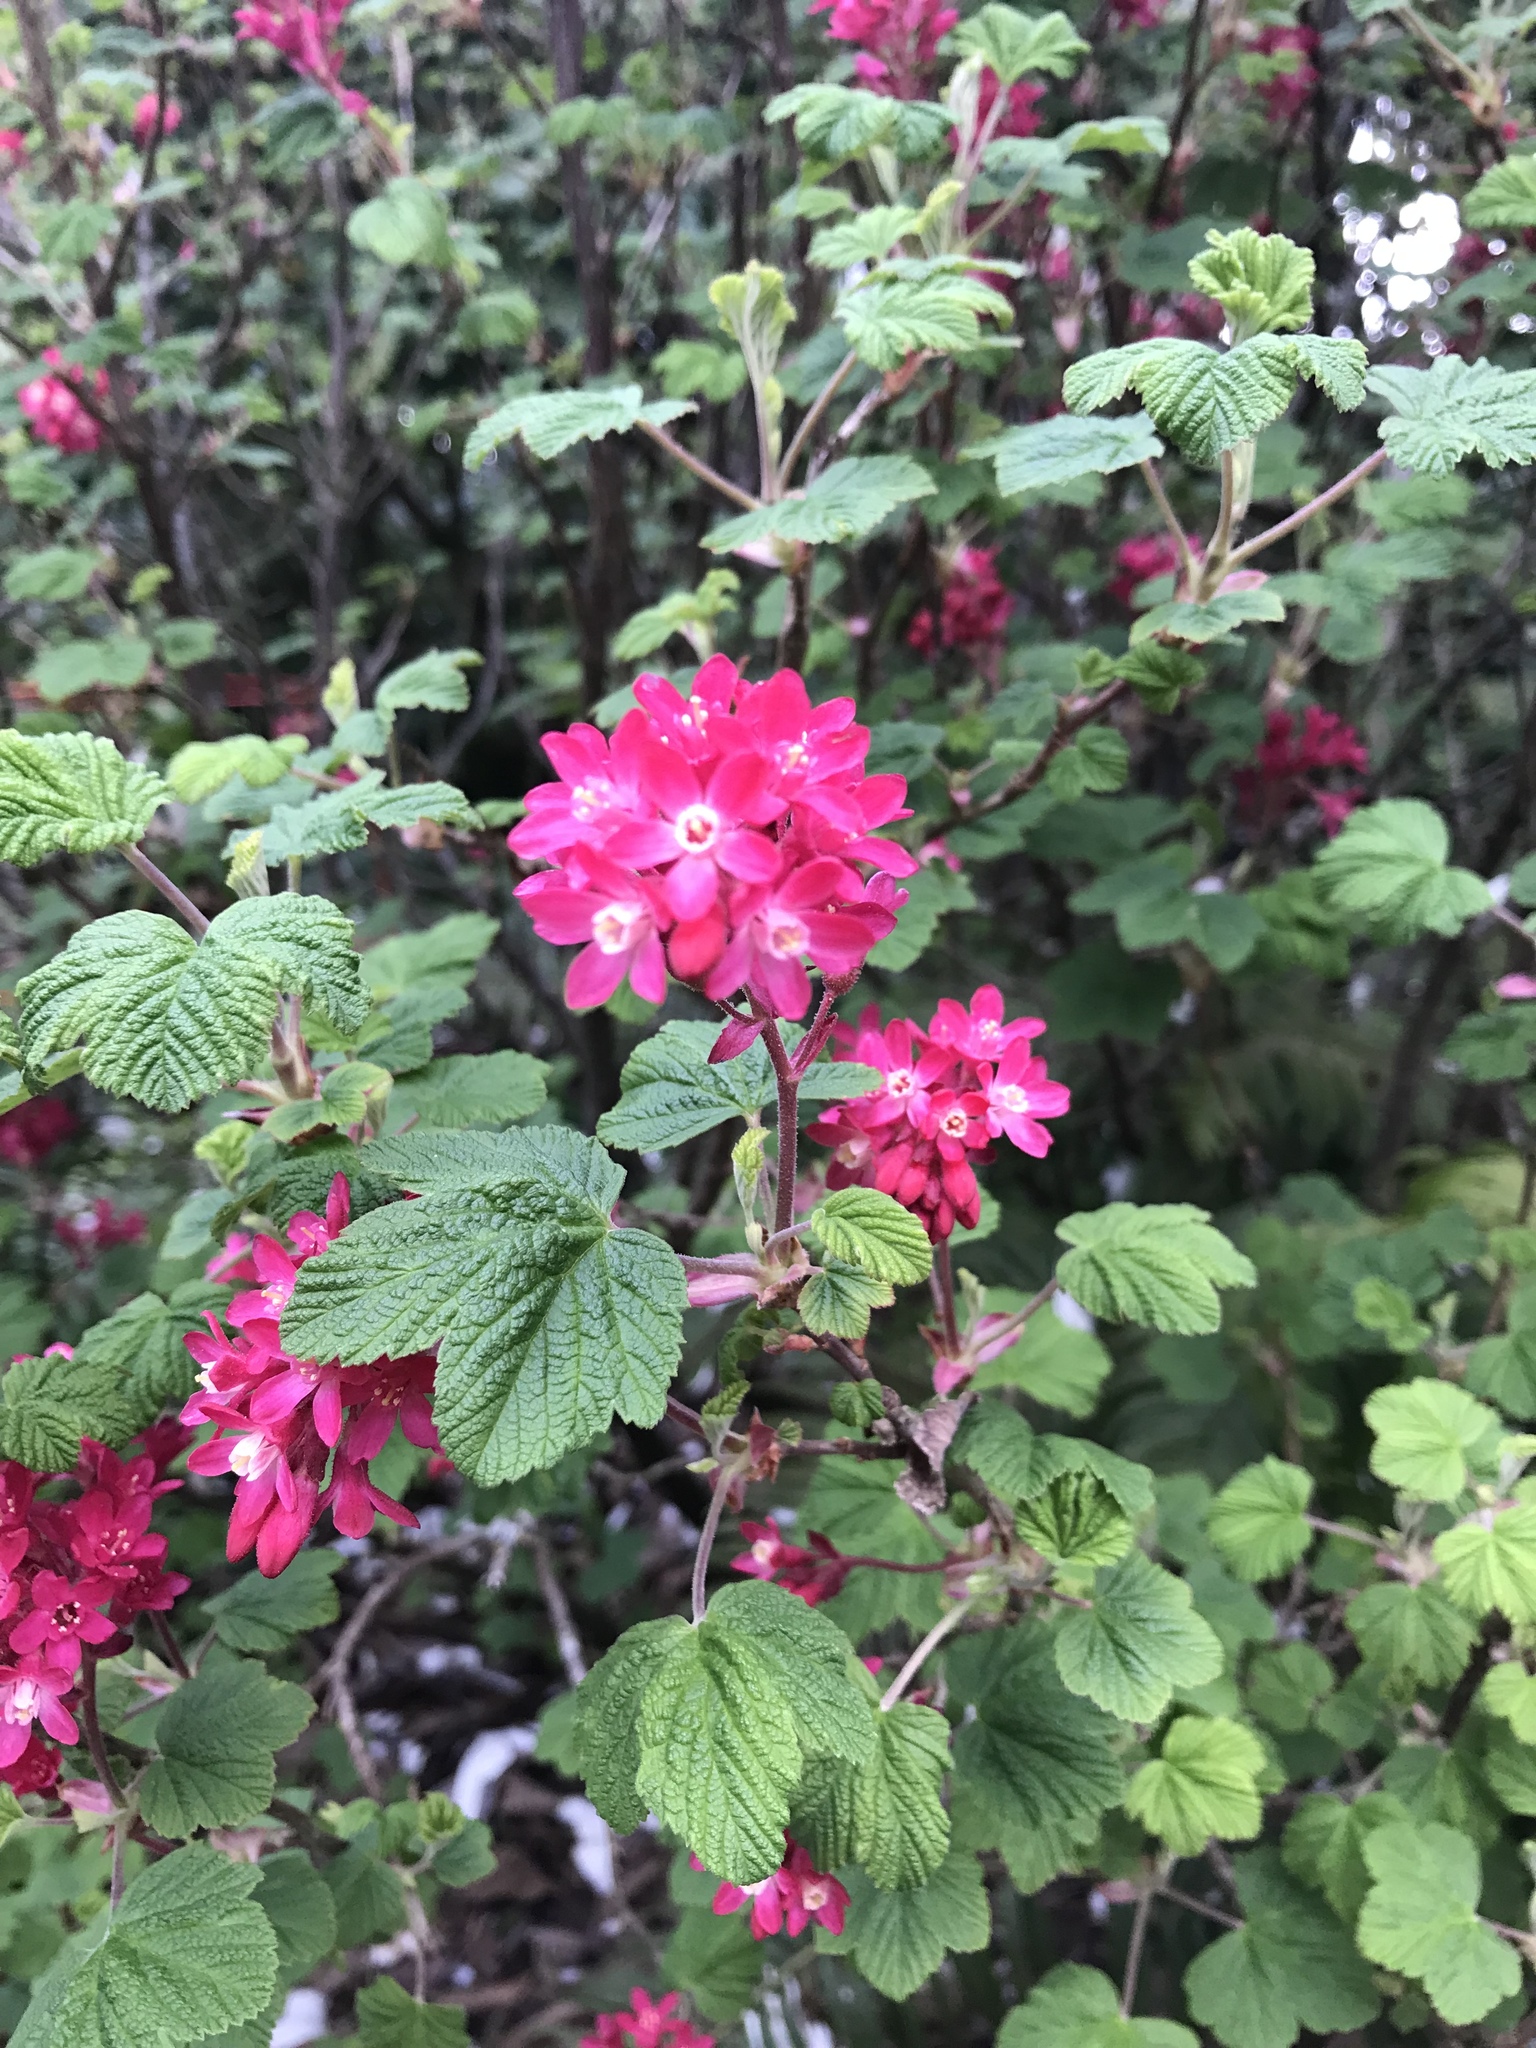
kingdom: Plantae
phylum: Tracheophyta
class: Magnoliopsida
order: Saxifragales
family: Grossulariaceae
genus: Ribes
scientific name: Ribes sanguineum
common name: Flowering currant
